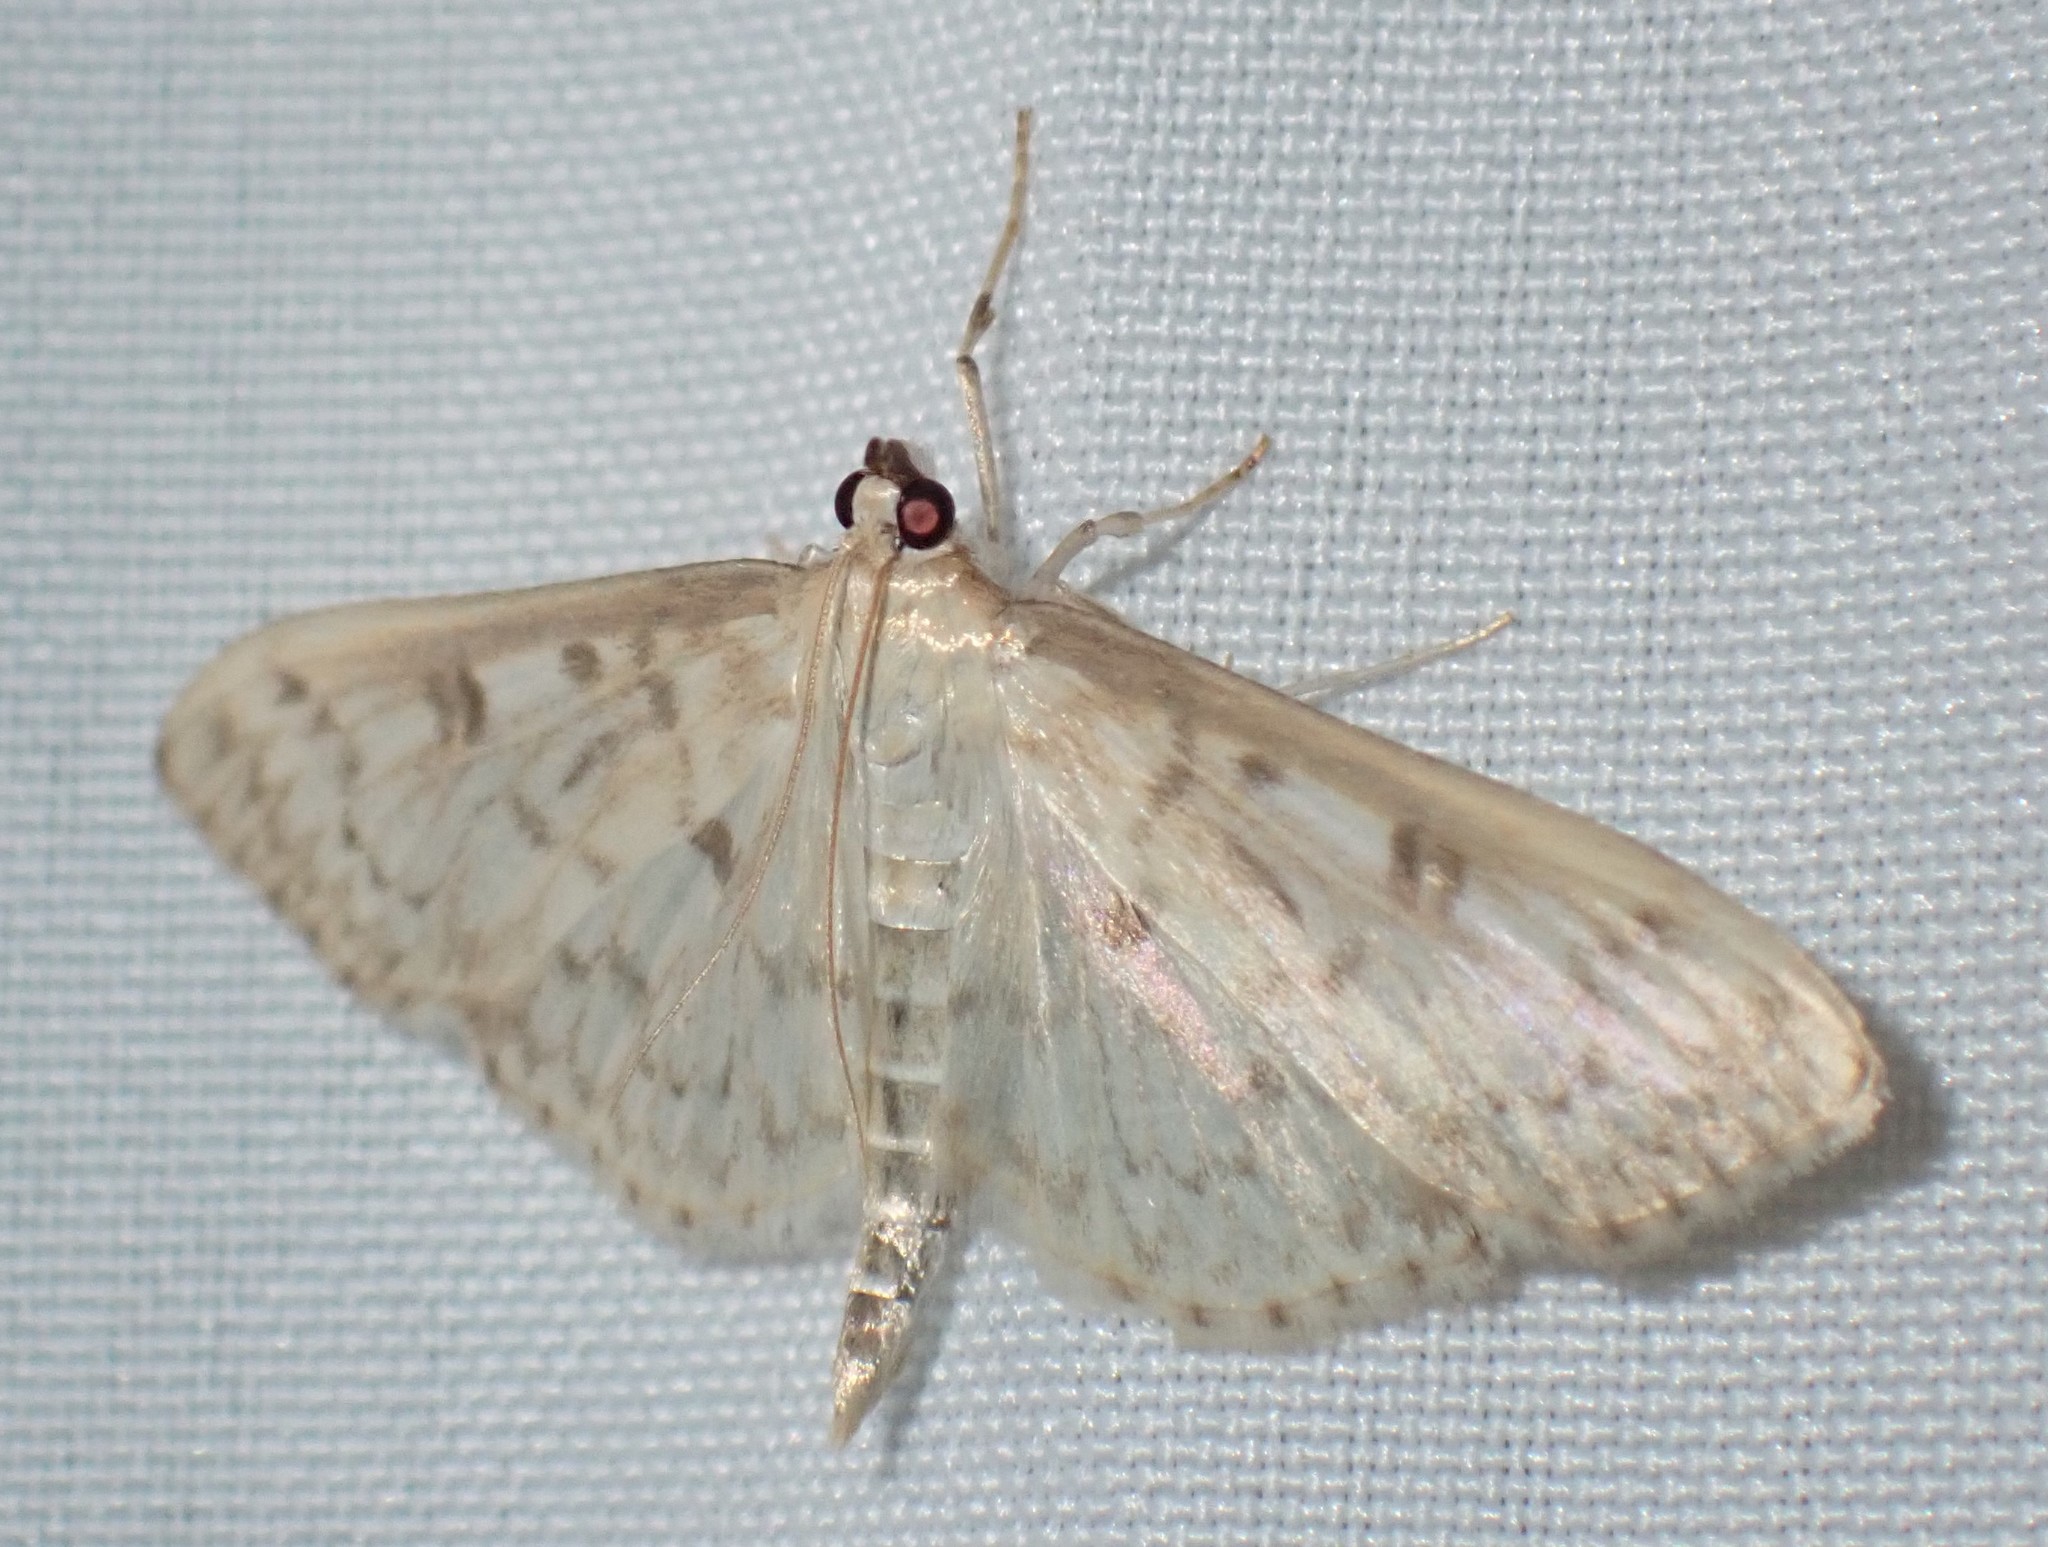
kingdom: Animalia
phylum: Arthropoda
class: Insecta
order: Lepidoptera
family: Crambidae
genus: Herpetogramma
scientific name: Herpetogramma aquilonalis
